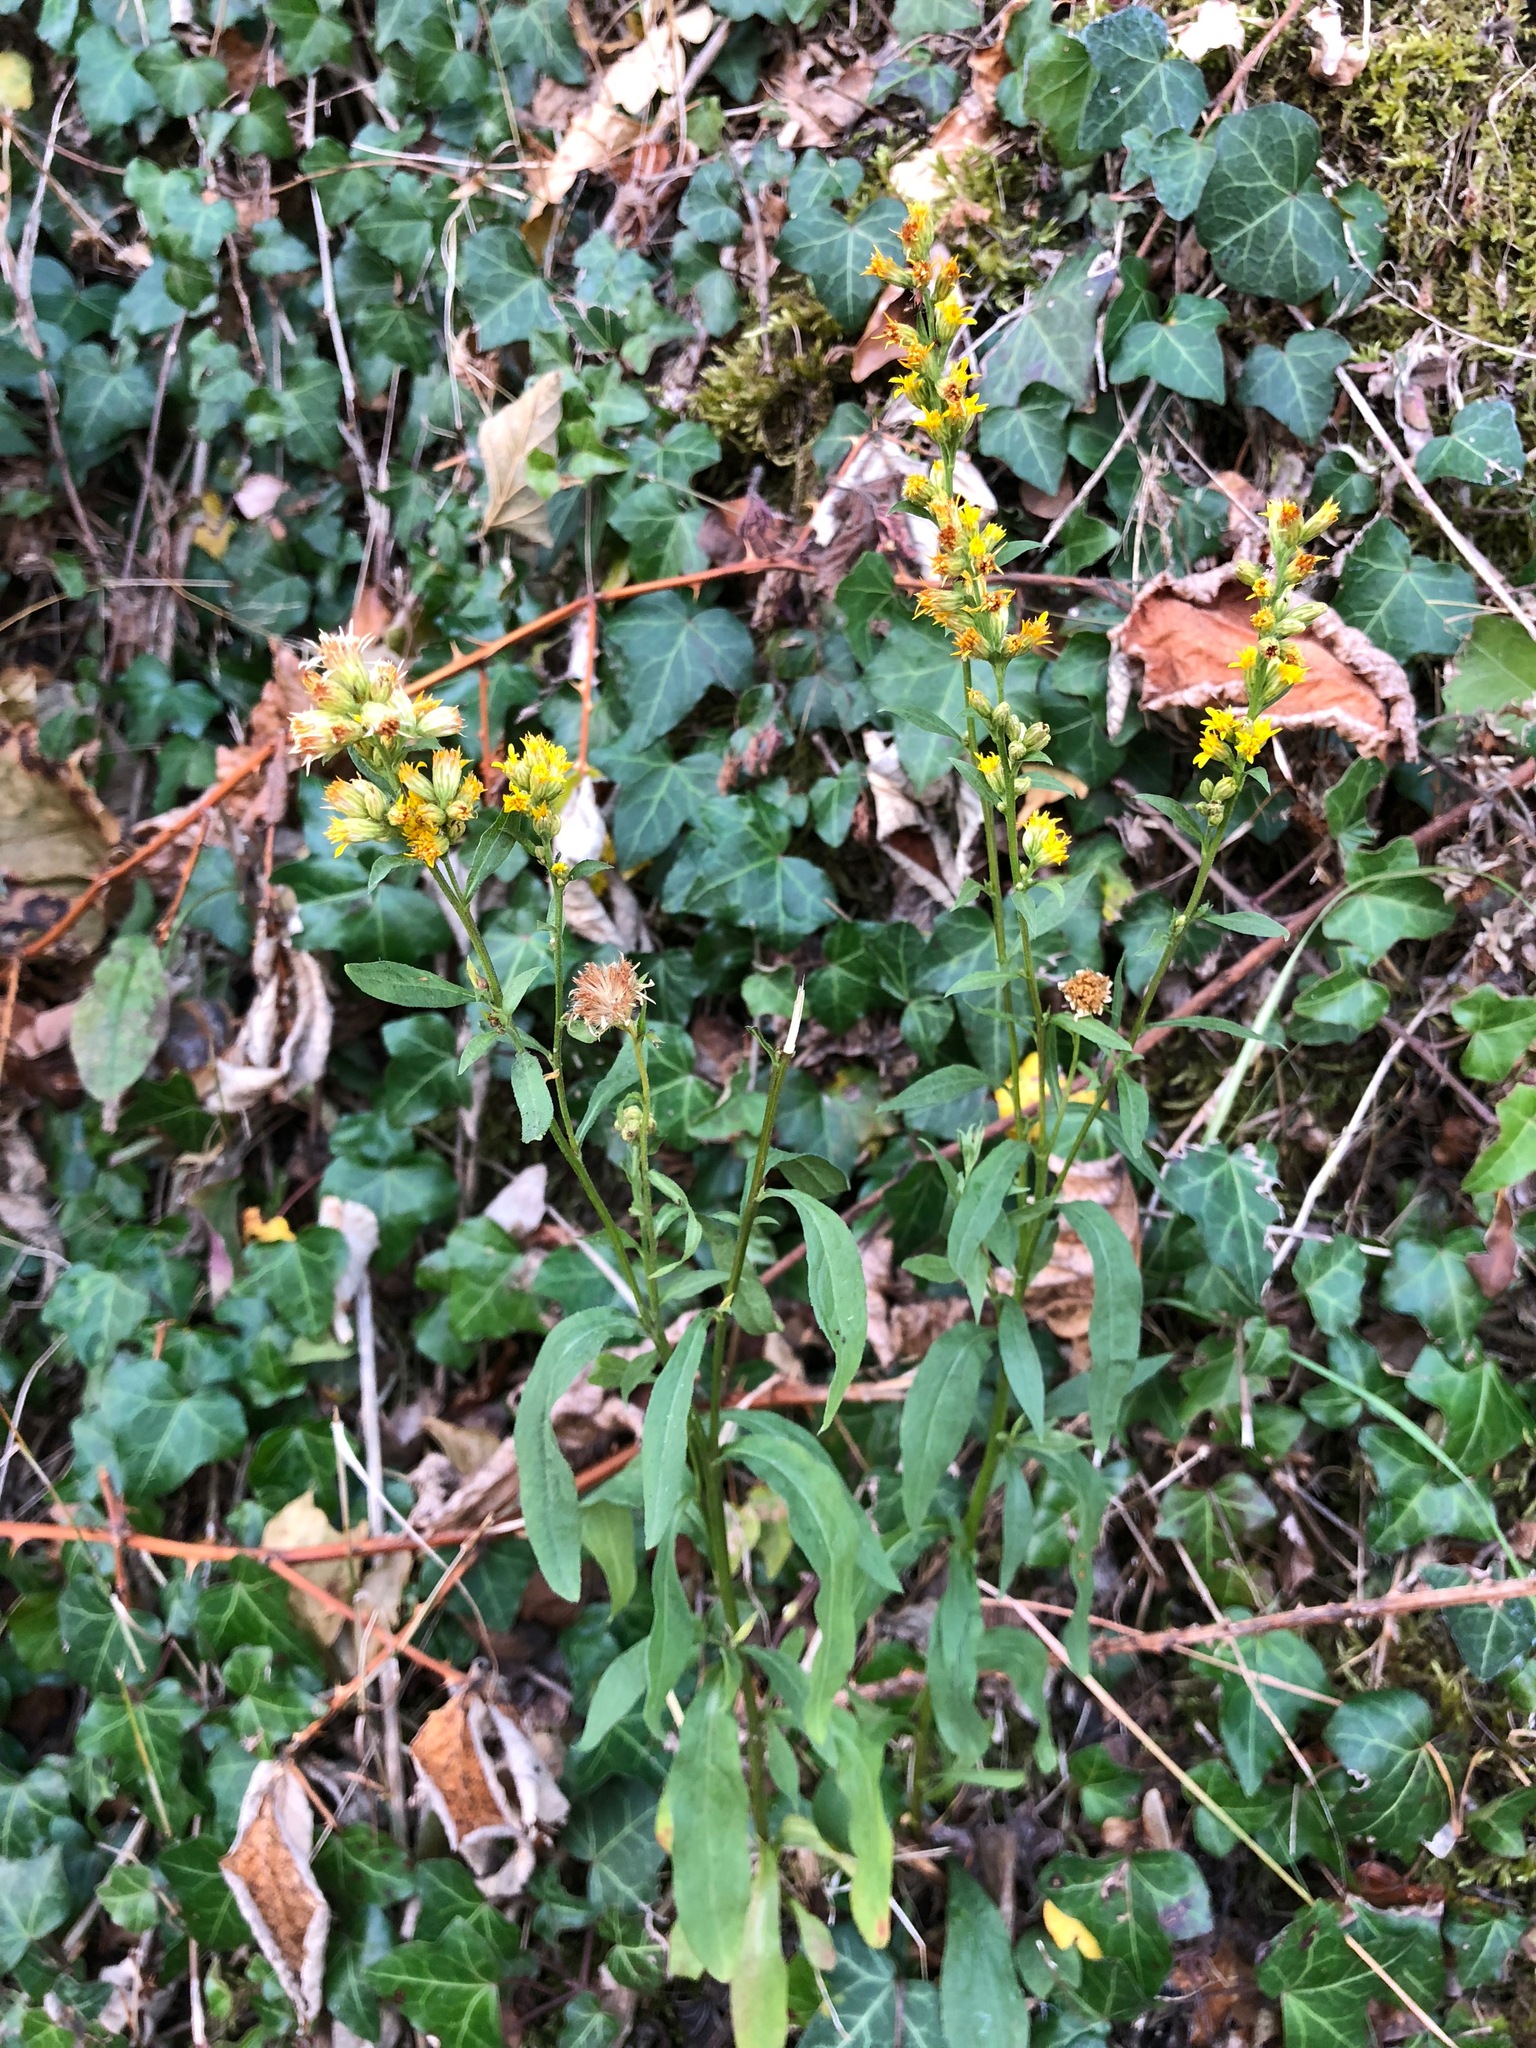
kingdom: Plantae
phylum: Tracheophyta
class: Magnoliopsida
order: Asterales
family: Asteraceae
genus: Solidago
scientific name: Solidago virgaurea
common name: Goldenrod
